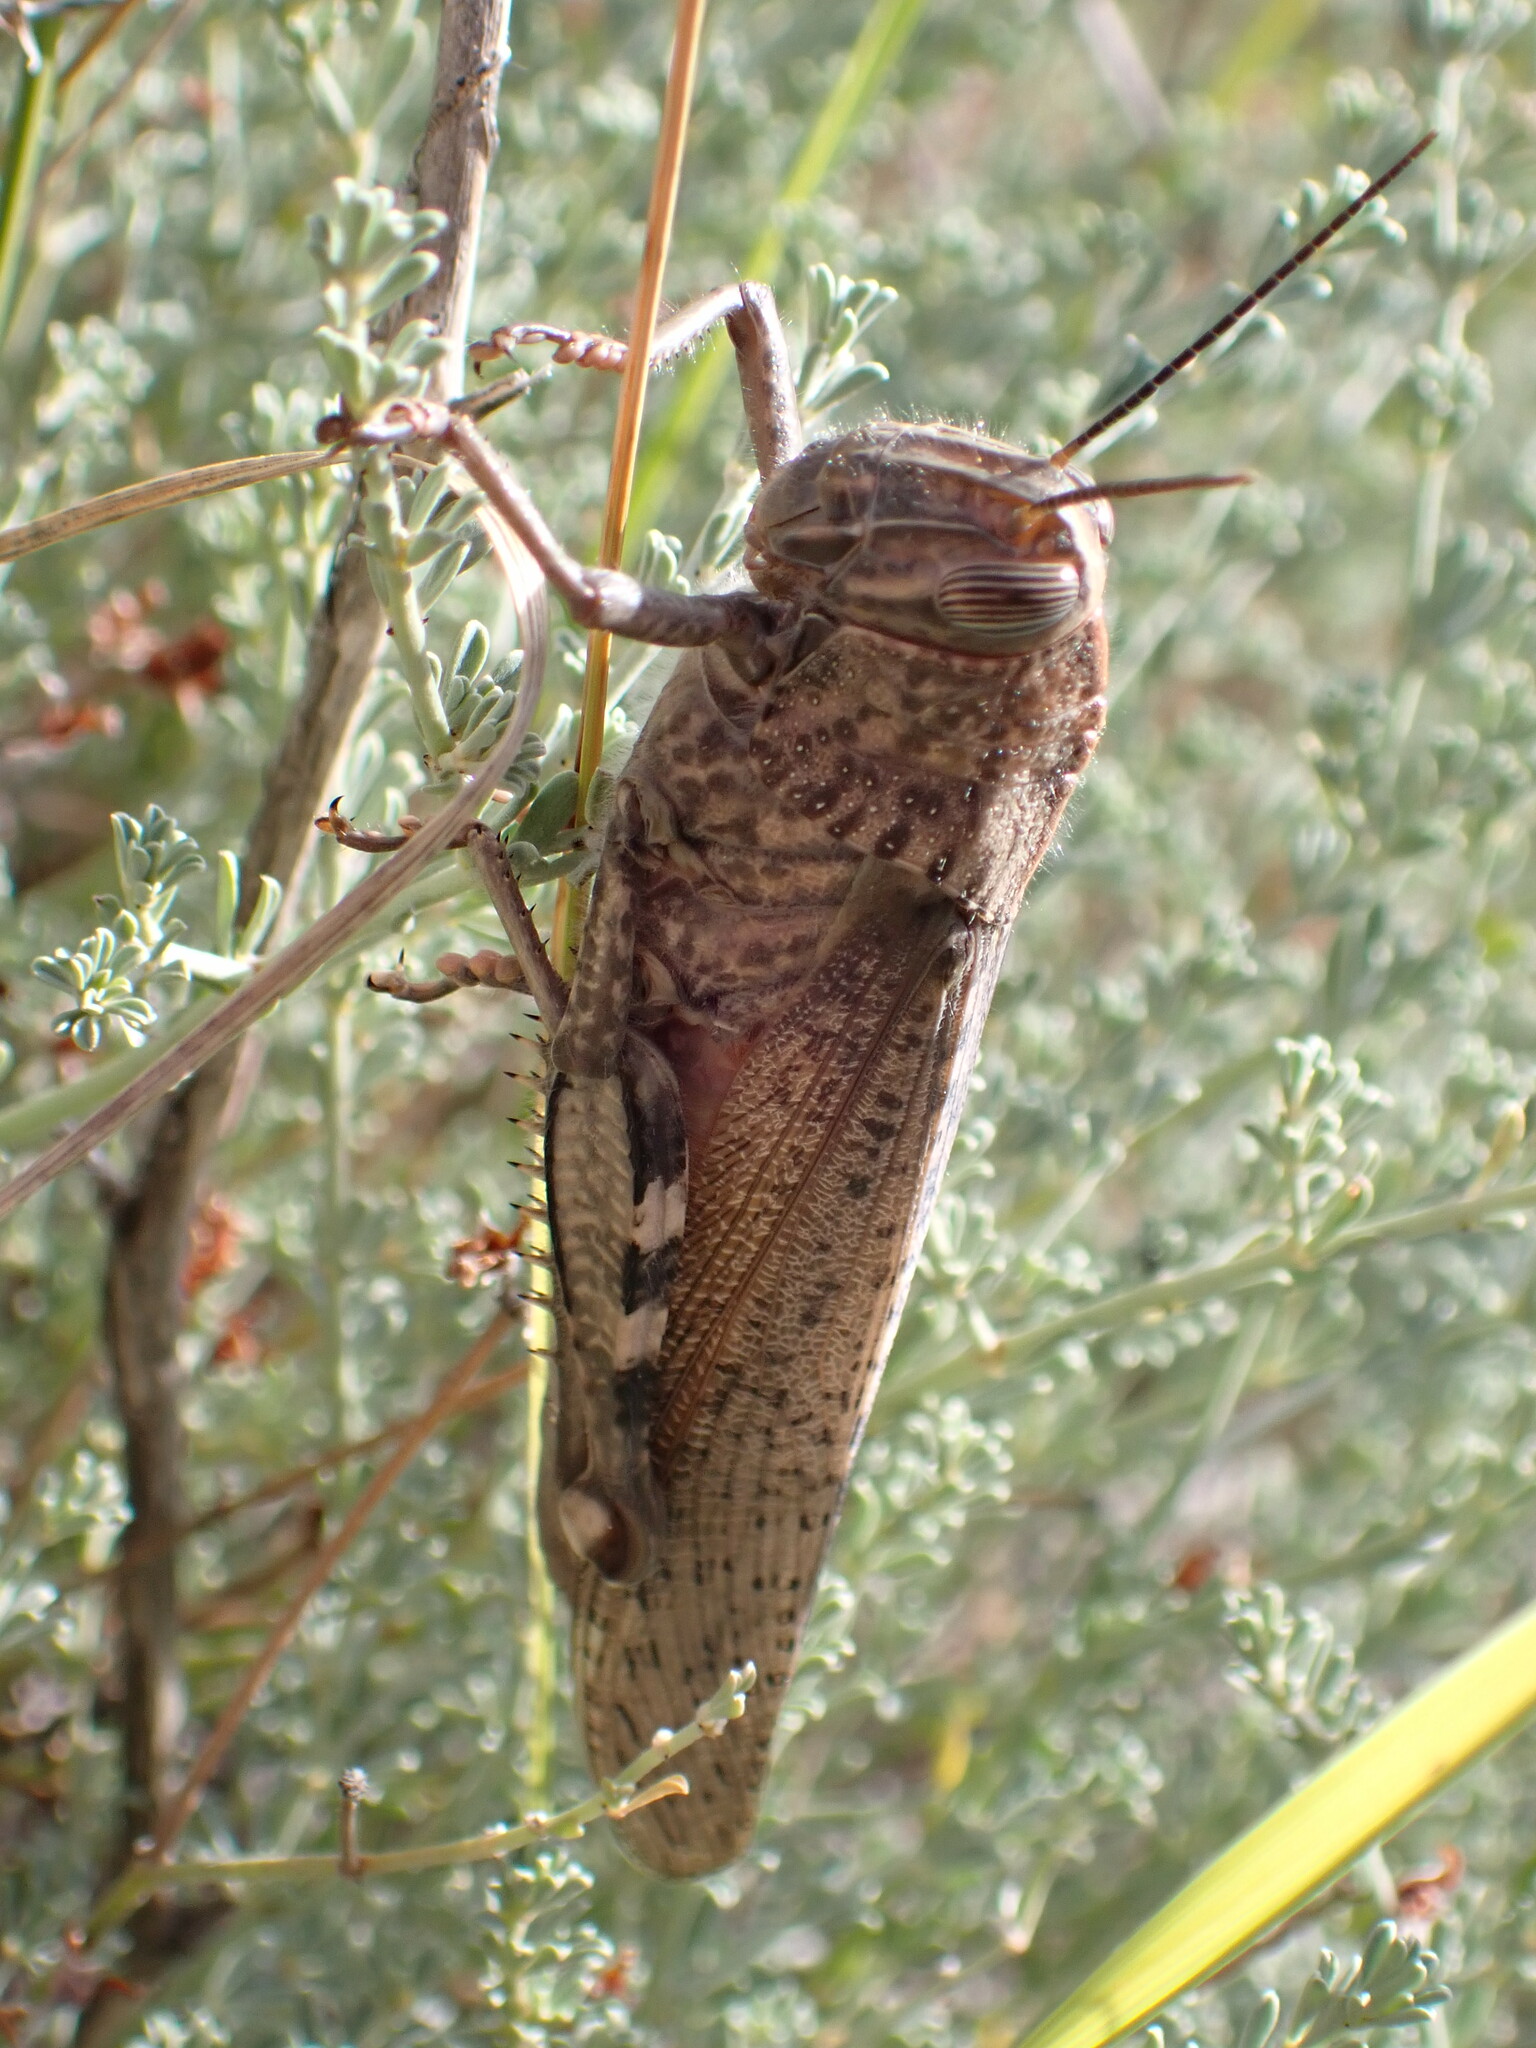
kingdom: Animalia
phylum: Arthropoda
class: Insecta
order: Orthoptera
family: Acrididae
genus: Anacridium
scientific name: Anacridium aegyptium
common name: Egyptian grasshopper
